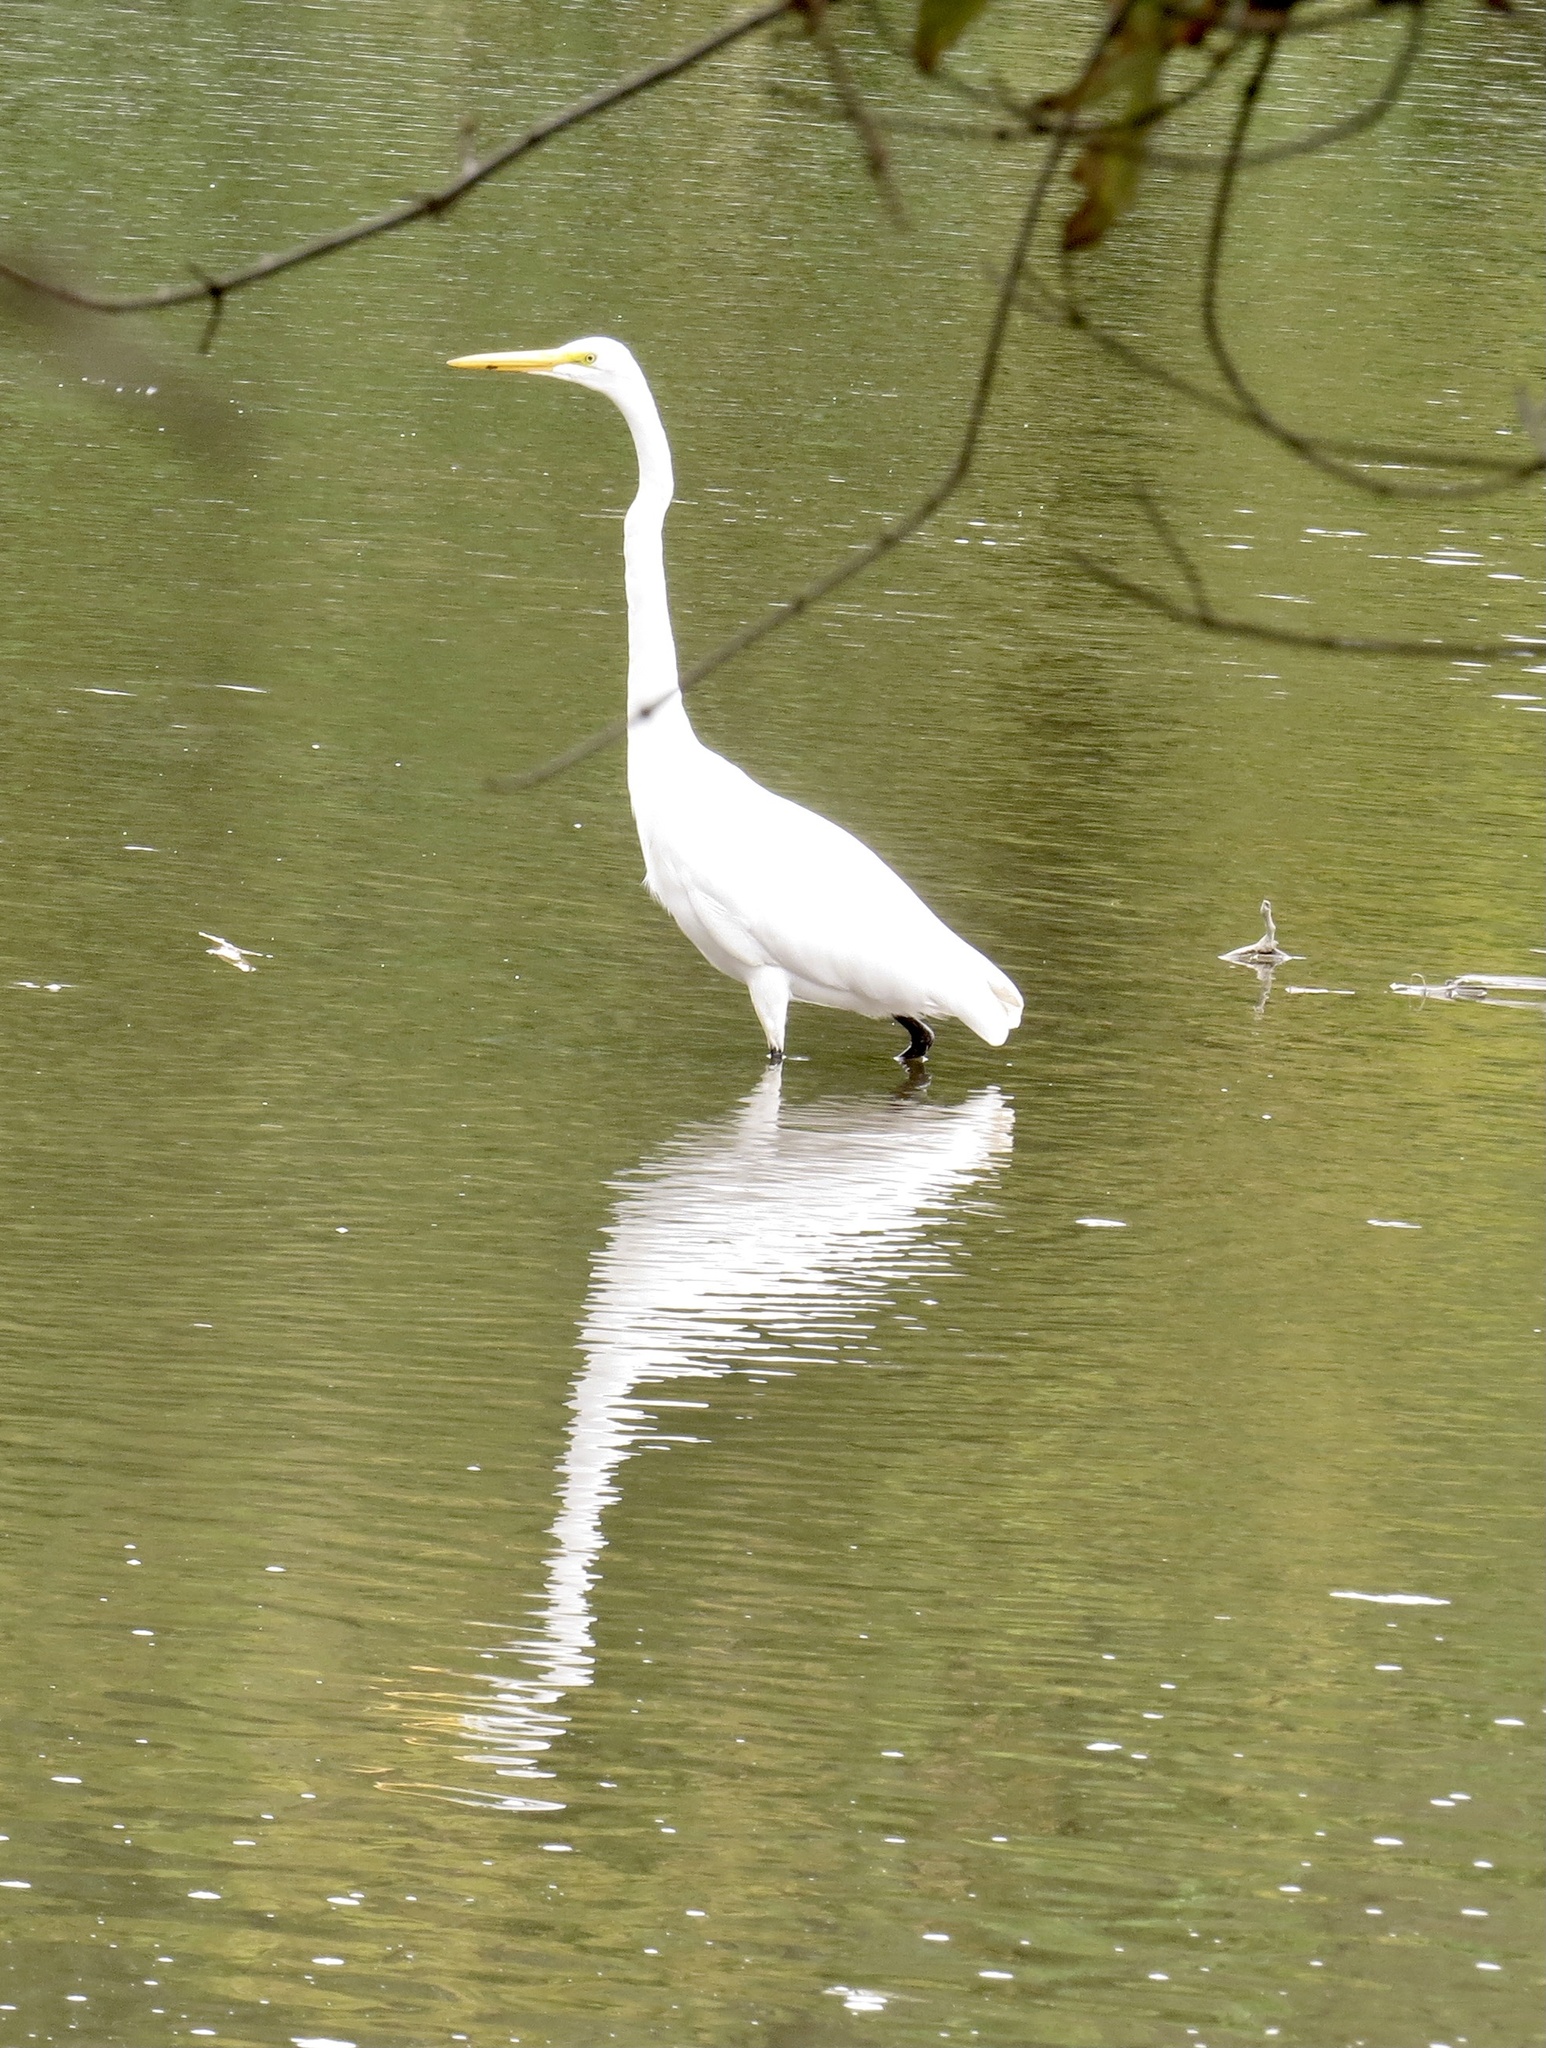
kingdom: Animalia
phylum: Chordata
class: Aves
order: Pelecaniformes
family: Ardeidae
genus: Ardea
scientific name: Ardea alba
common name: Great egret
